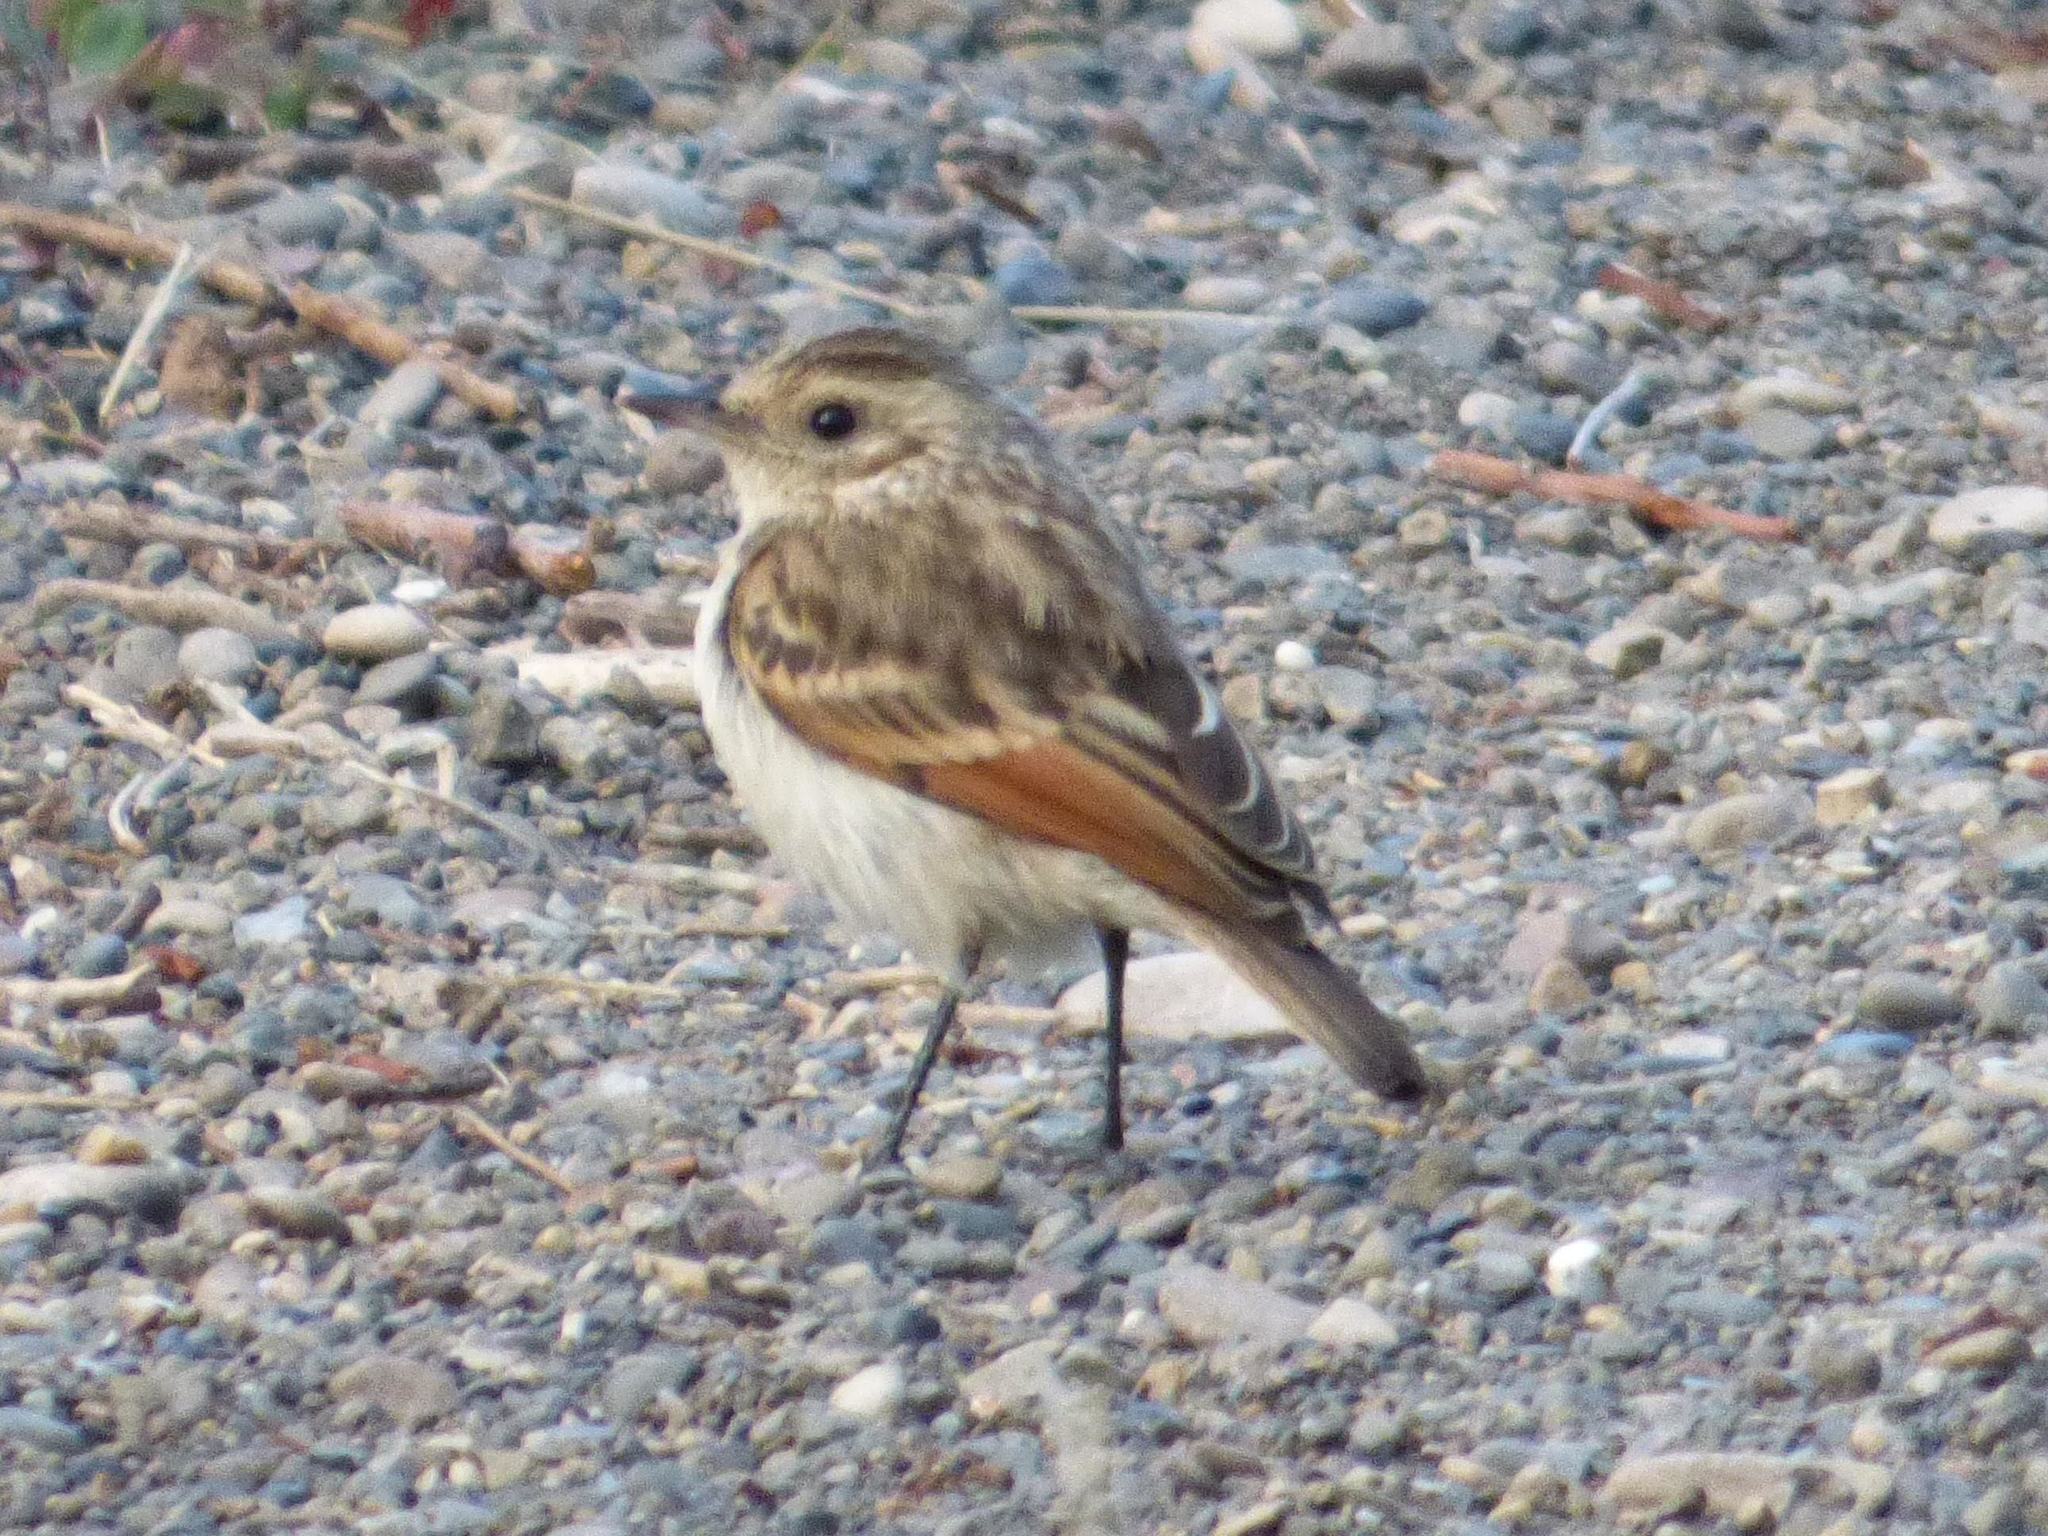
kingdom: Animalia
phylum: Chordata
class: Aves
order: Passeriformes
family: Tyrannidae
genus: Hymenops
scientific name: Hymenops perspicillatus
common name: Spectacled tyrant
